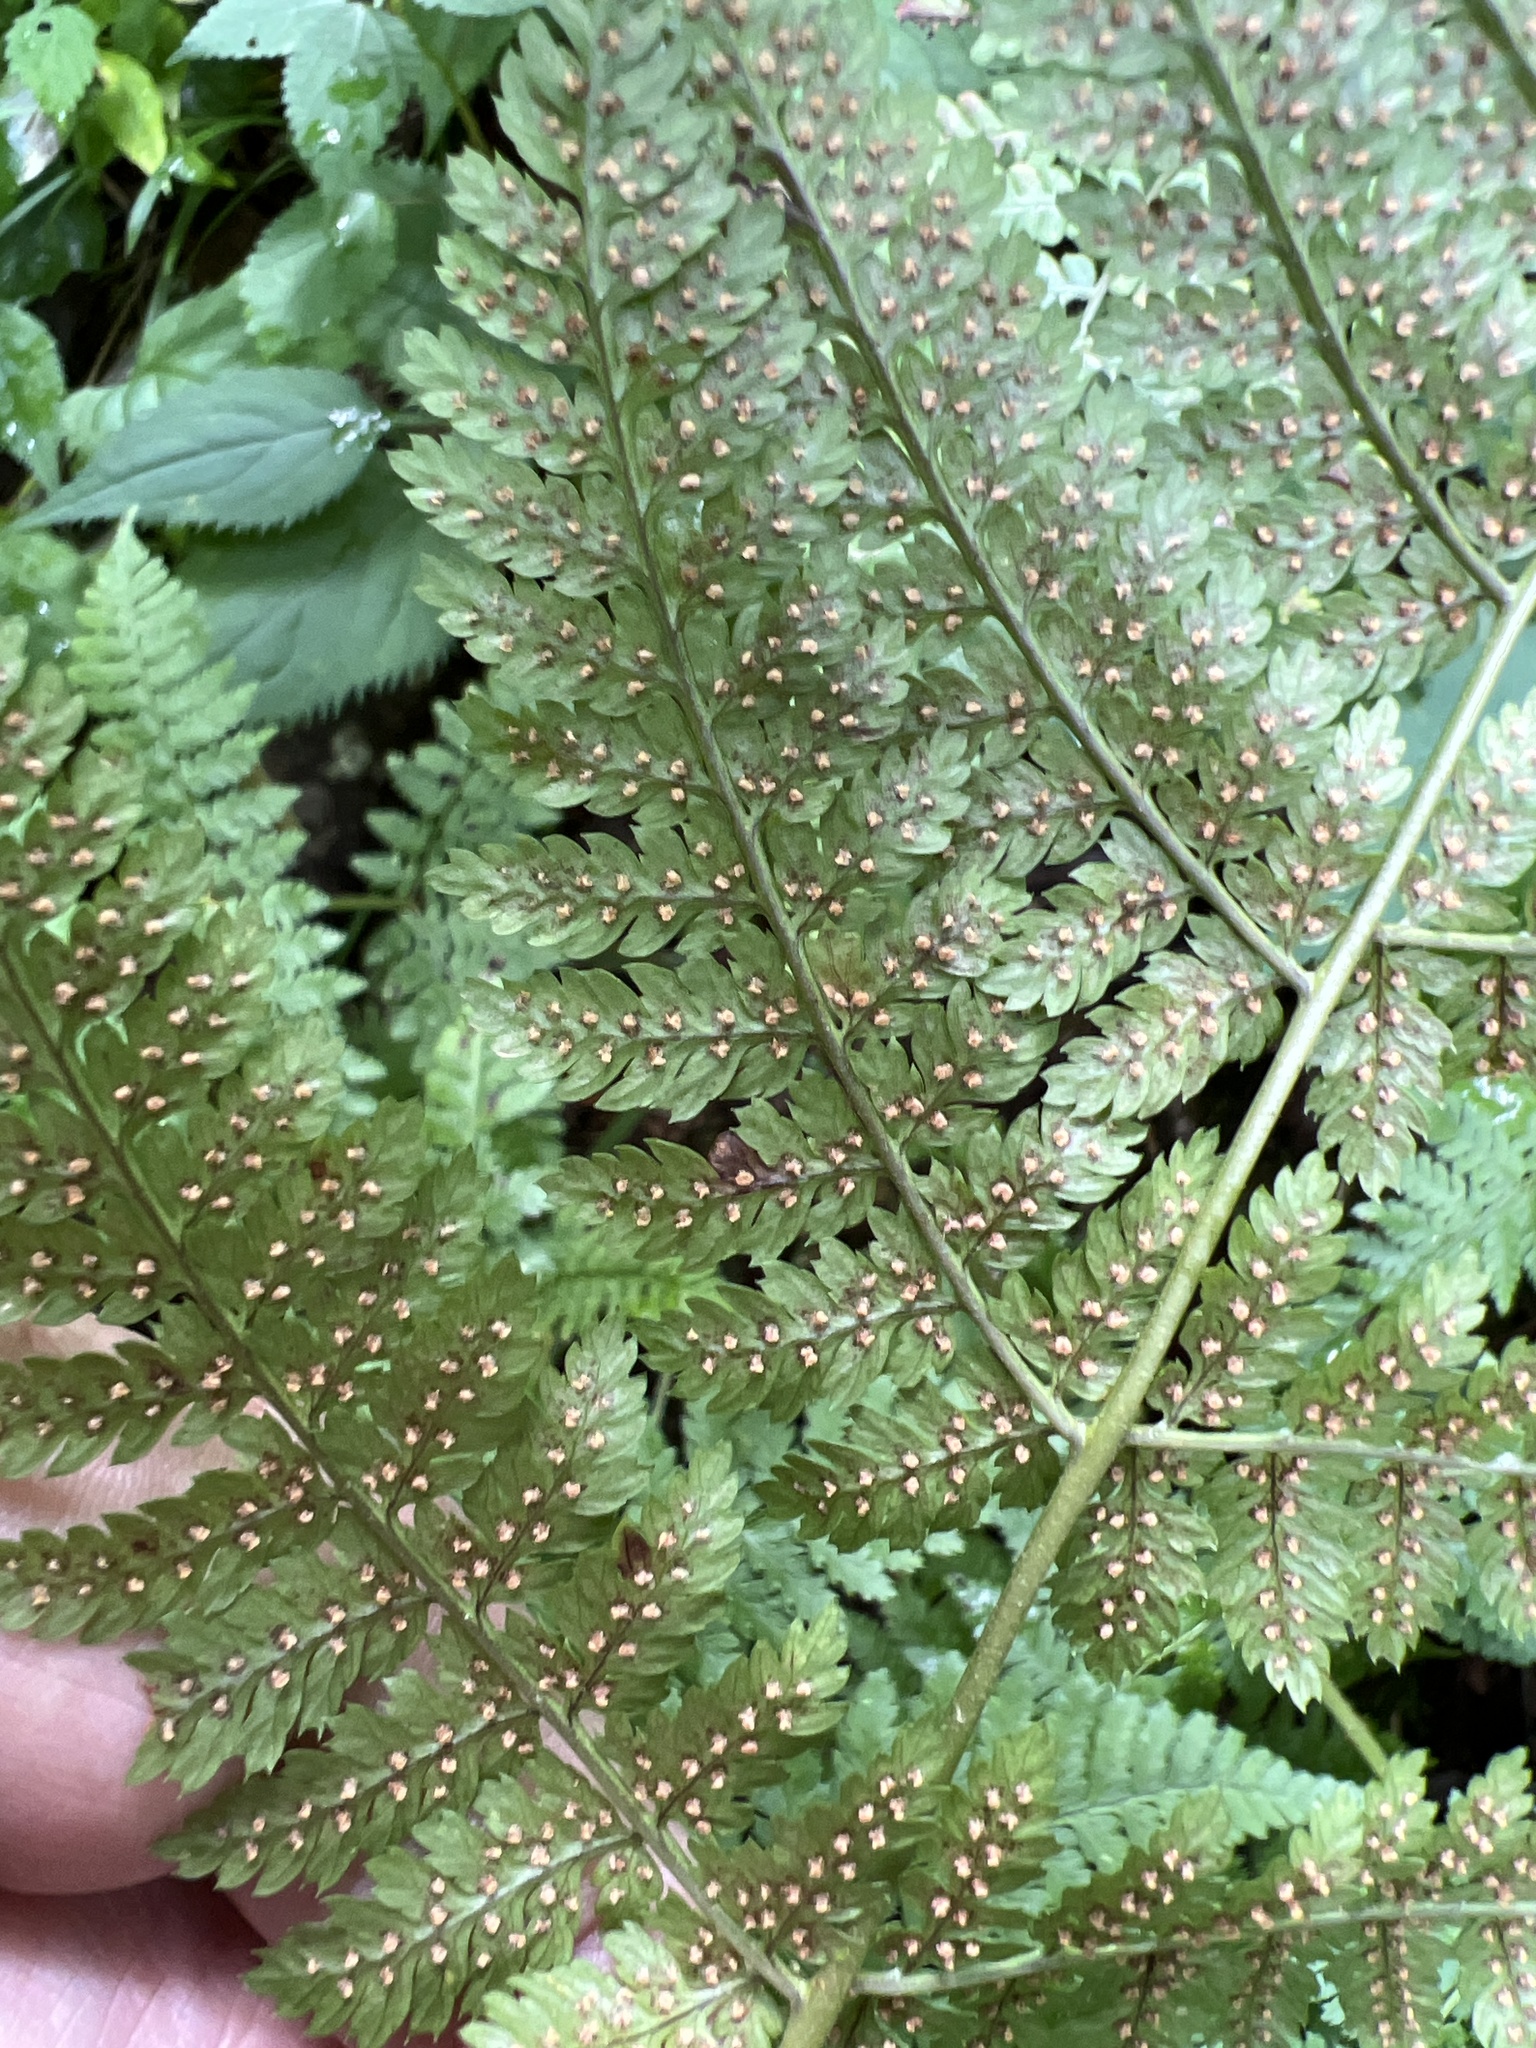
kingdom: Plantae
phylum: Tracheophyta
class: Polypodiopsida
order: Polypodiales
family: Dryopteridaceae
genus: Dryopteris
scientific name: Dryopteris intermedia
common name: Evergreen wood fern
